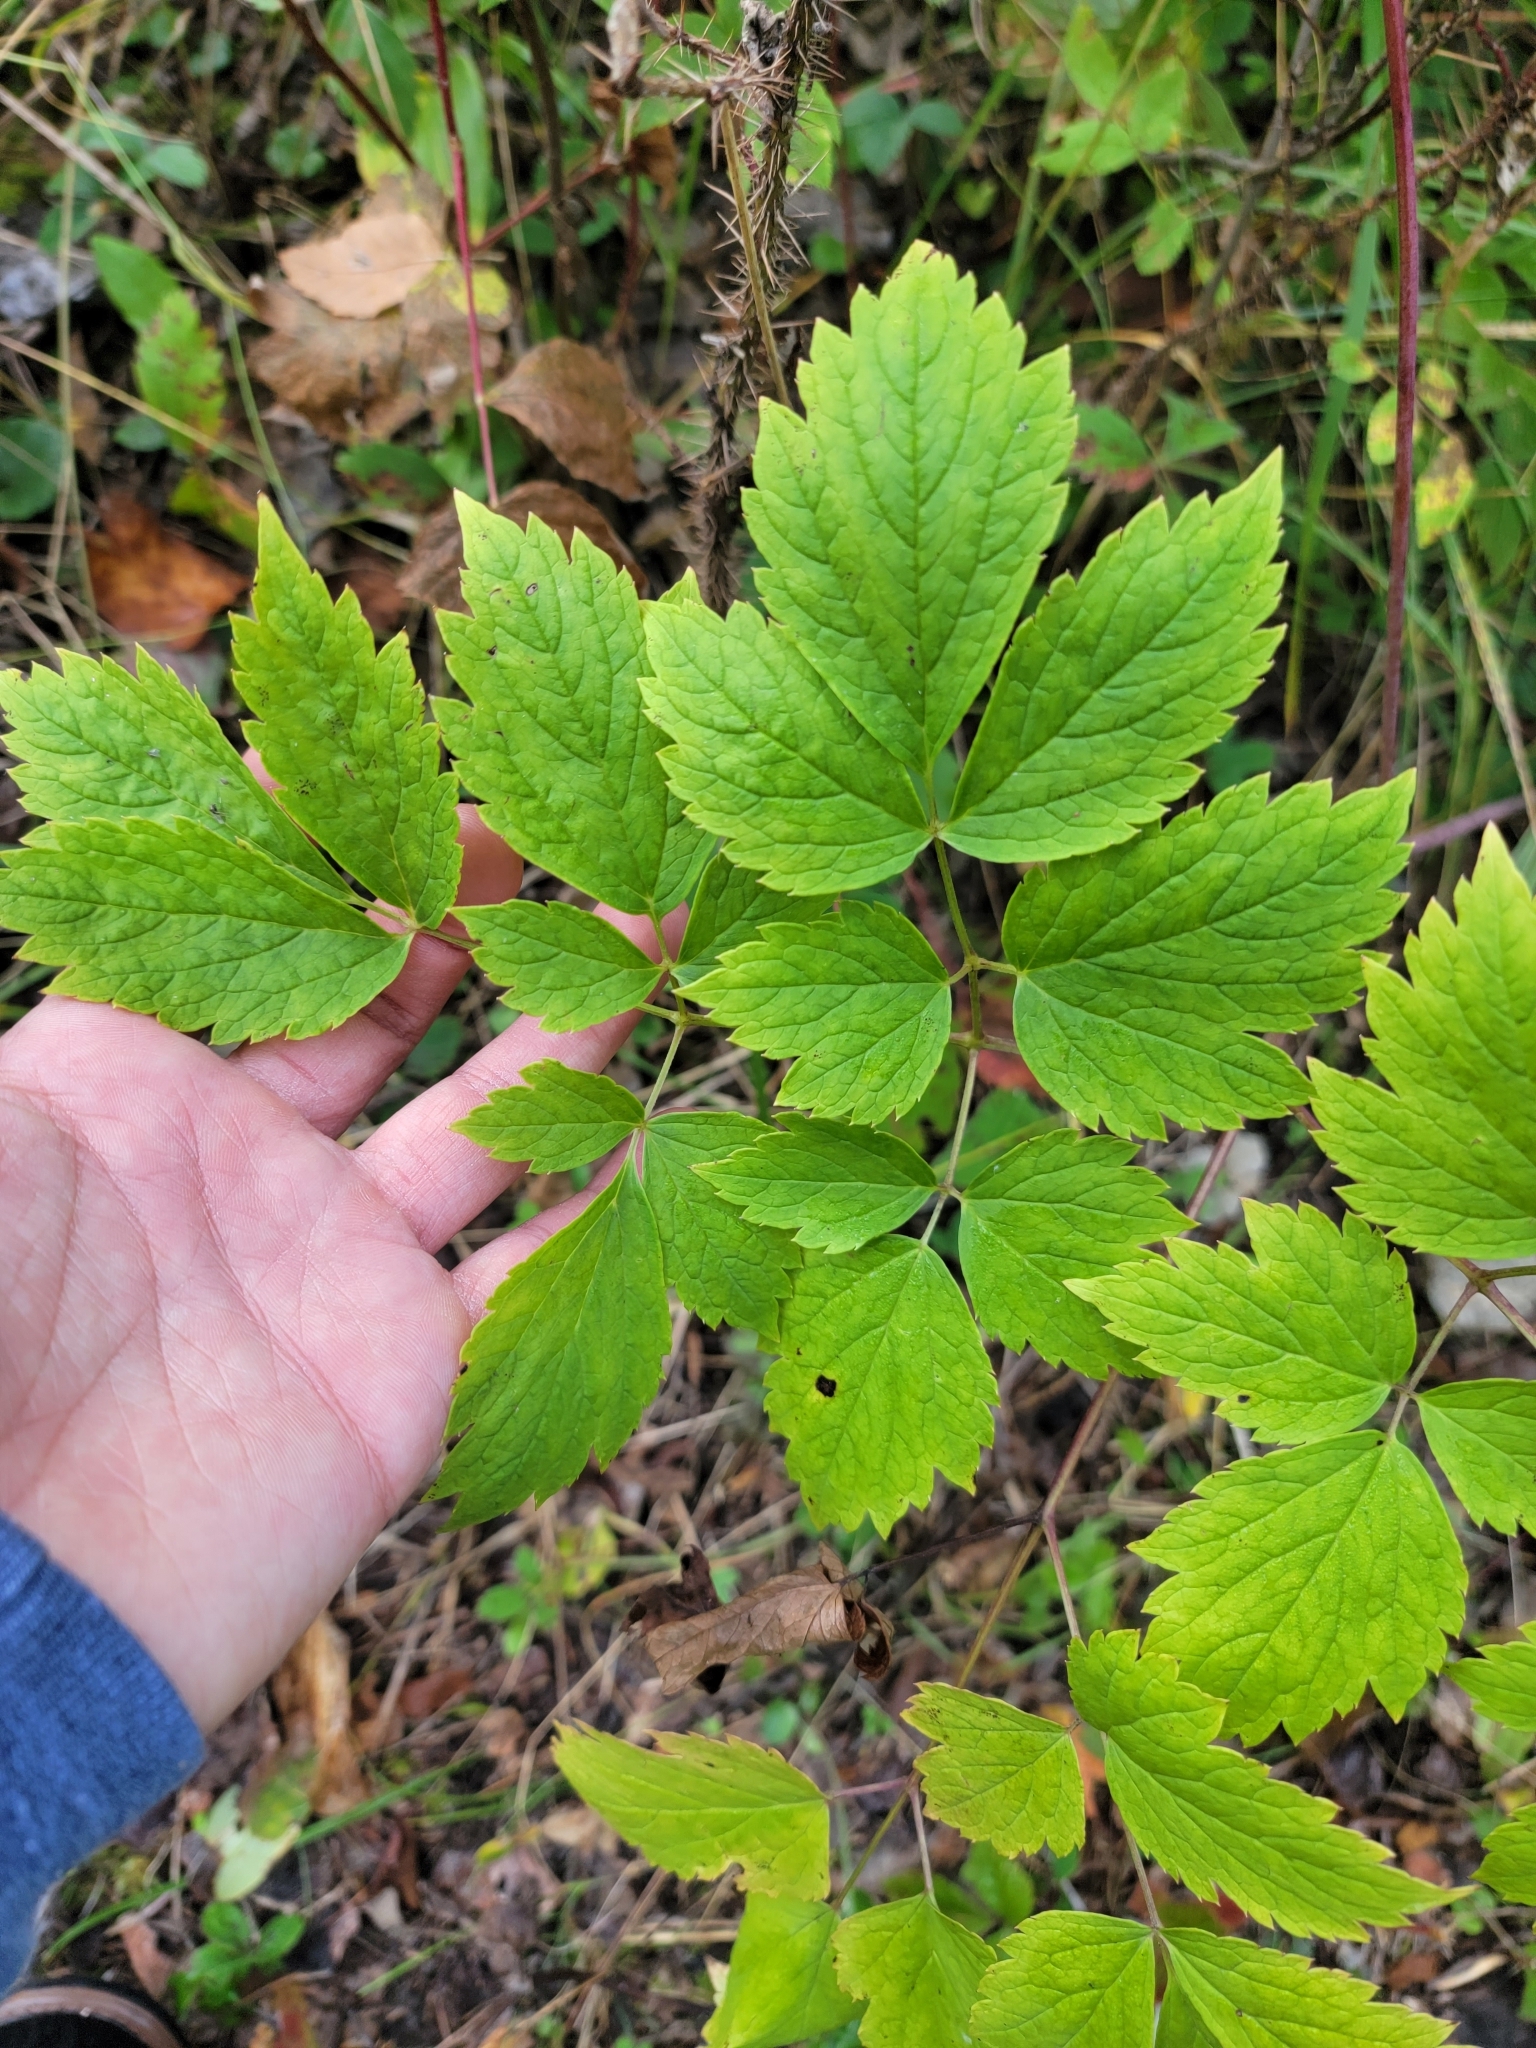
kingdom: Plantae
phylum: Tracheophyta
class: Magnoliopsida
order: Ranunculales
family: Ranunculaceae
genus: Actaea
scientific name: Actaea rubra
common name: Red baneberry
